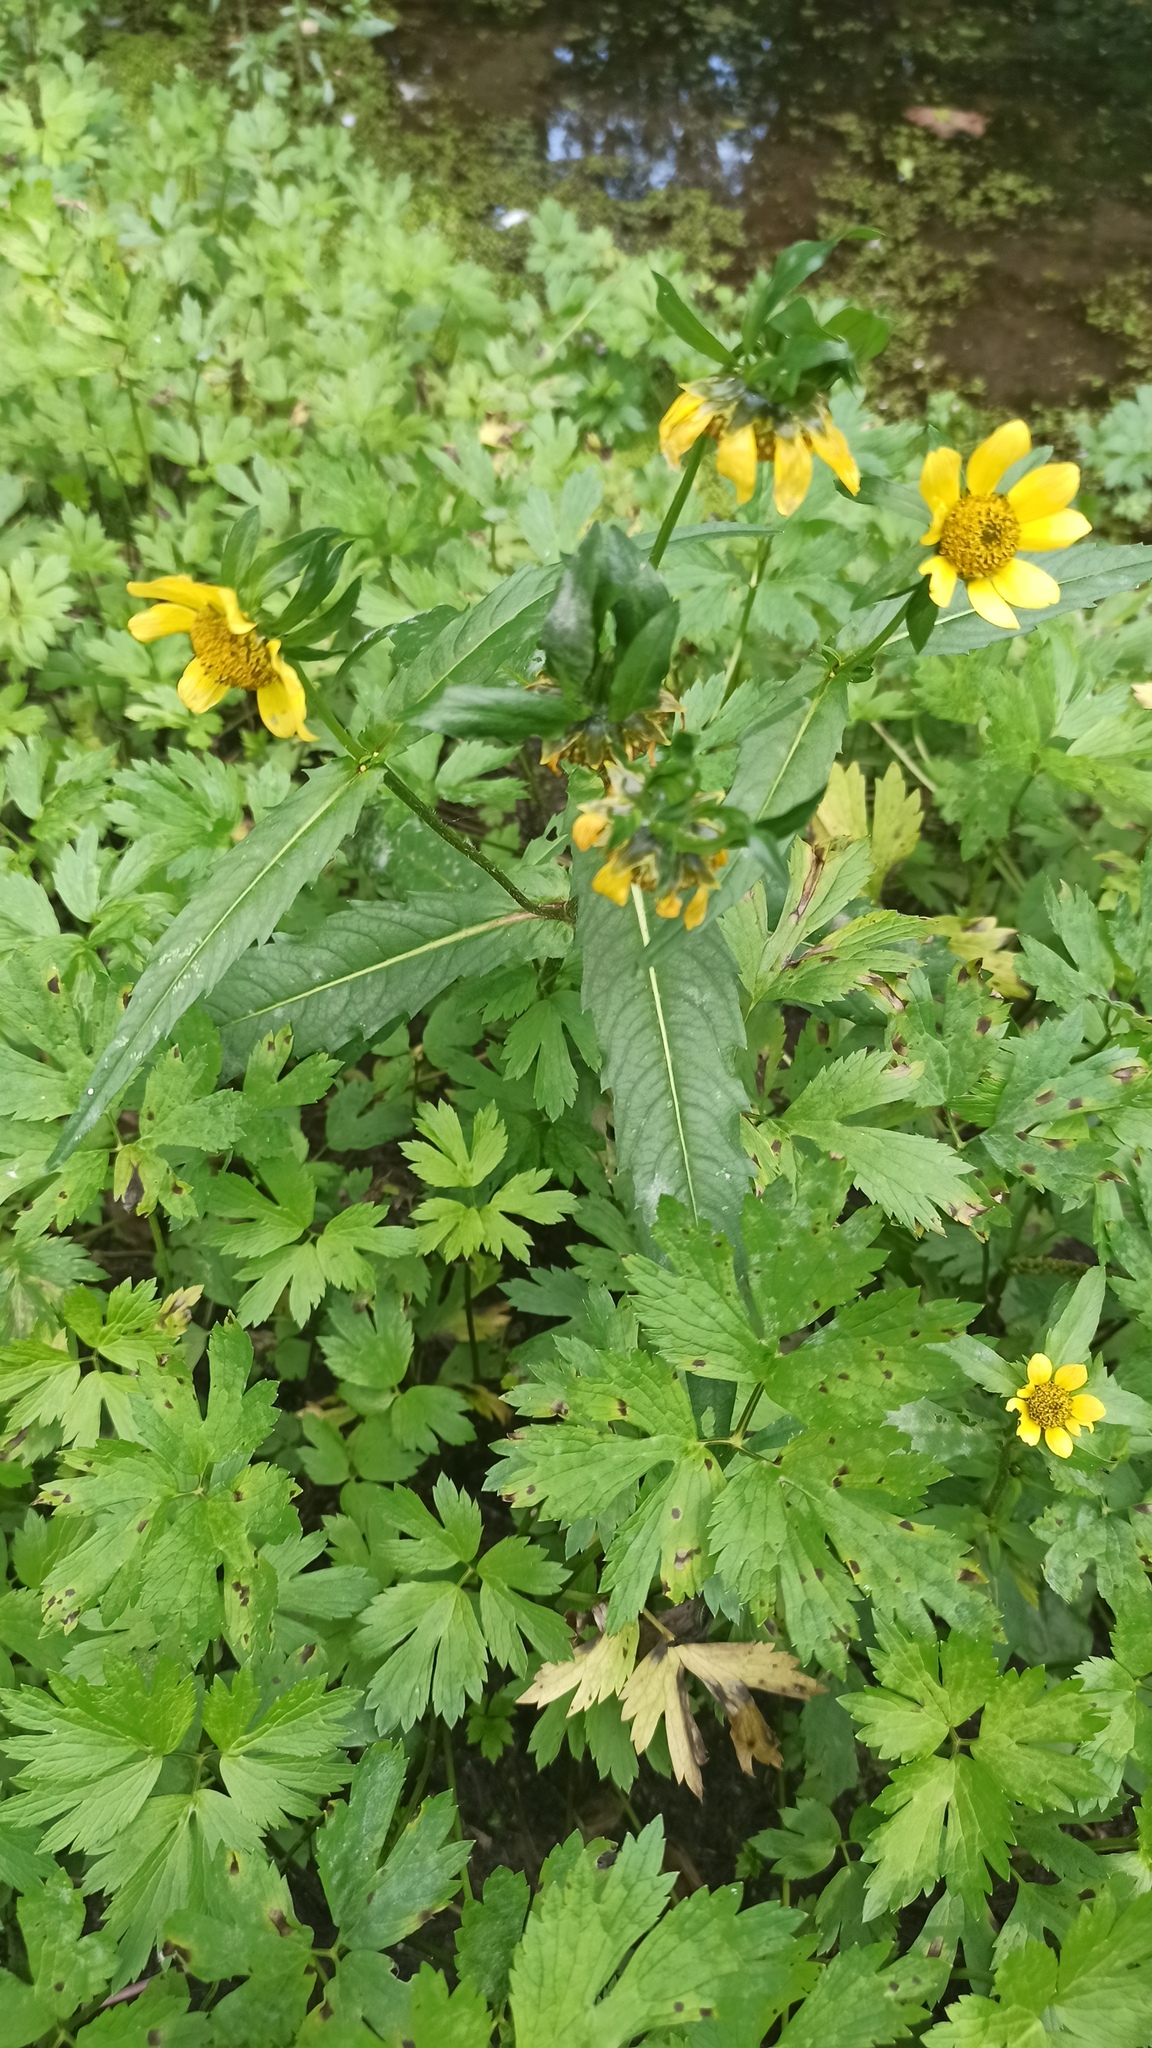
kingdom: Plantae
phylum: Tracheophyta
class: Magnoliopsida
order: Asterales
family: Asteraceae
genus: Bidens
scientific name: Bidens cernua
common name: Nodding bur-marigold
